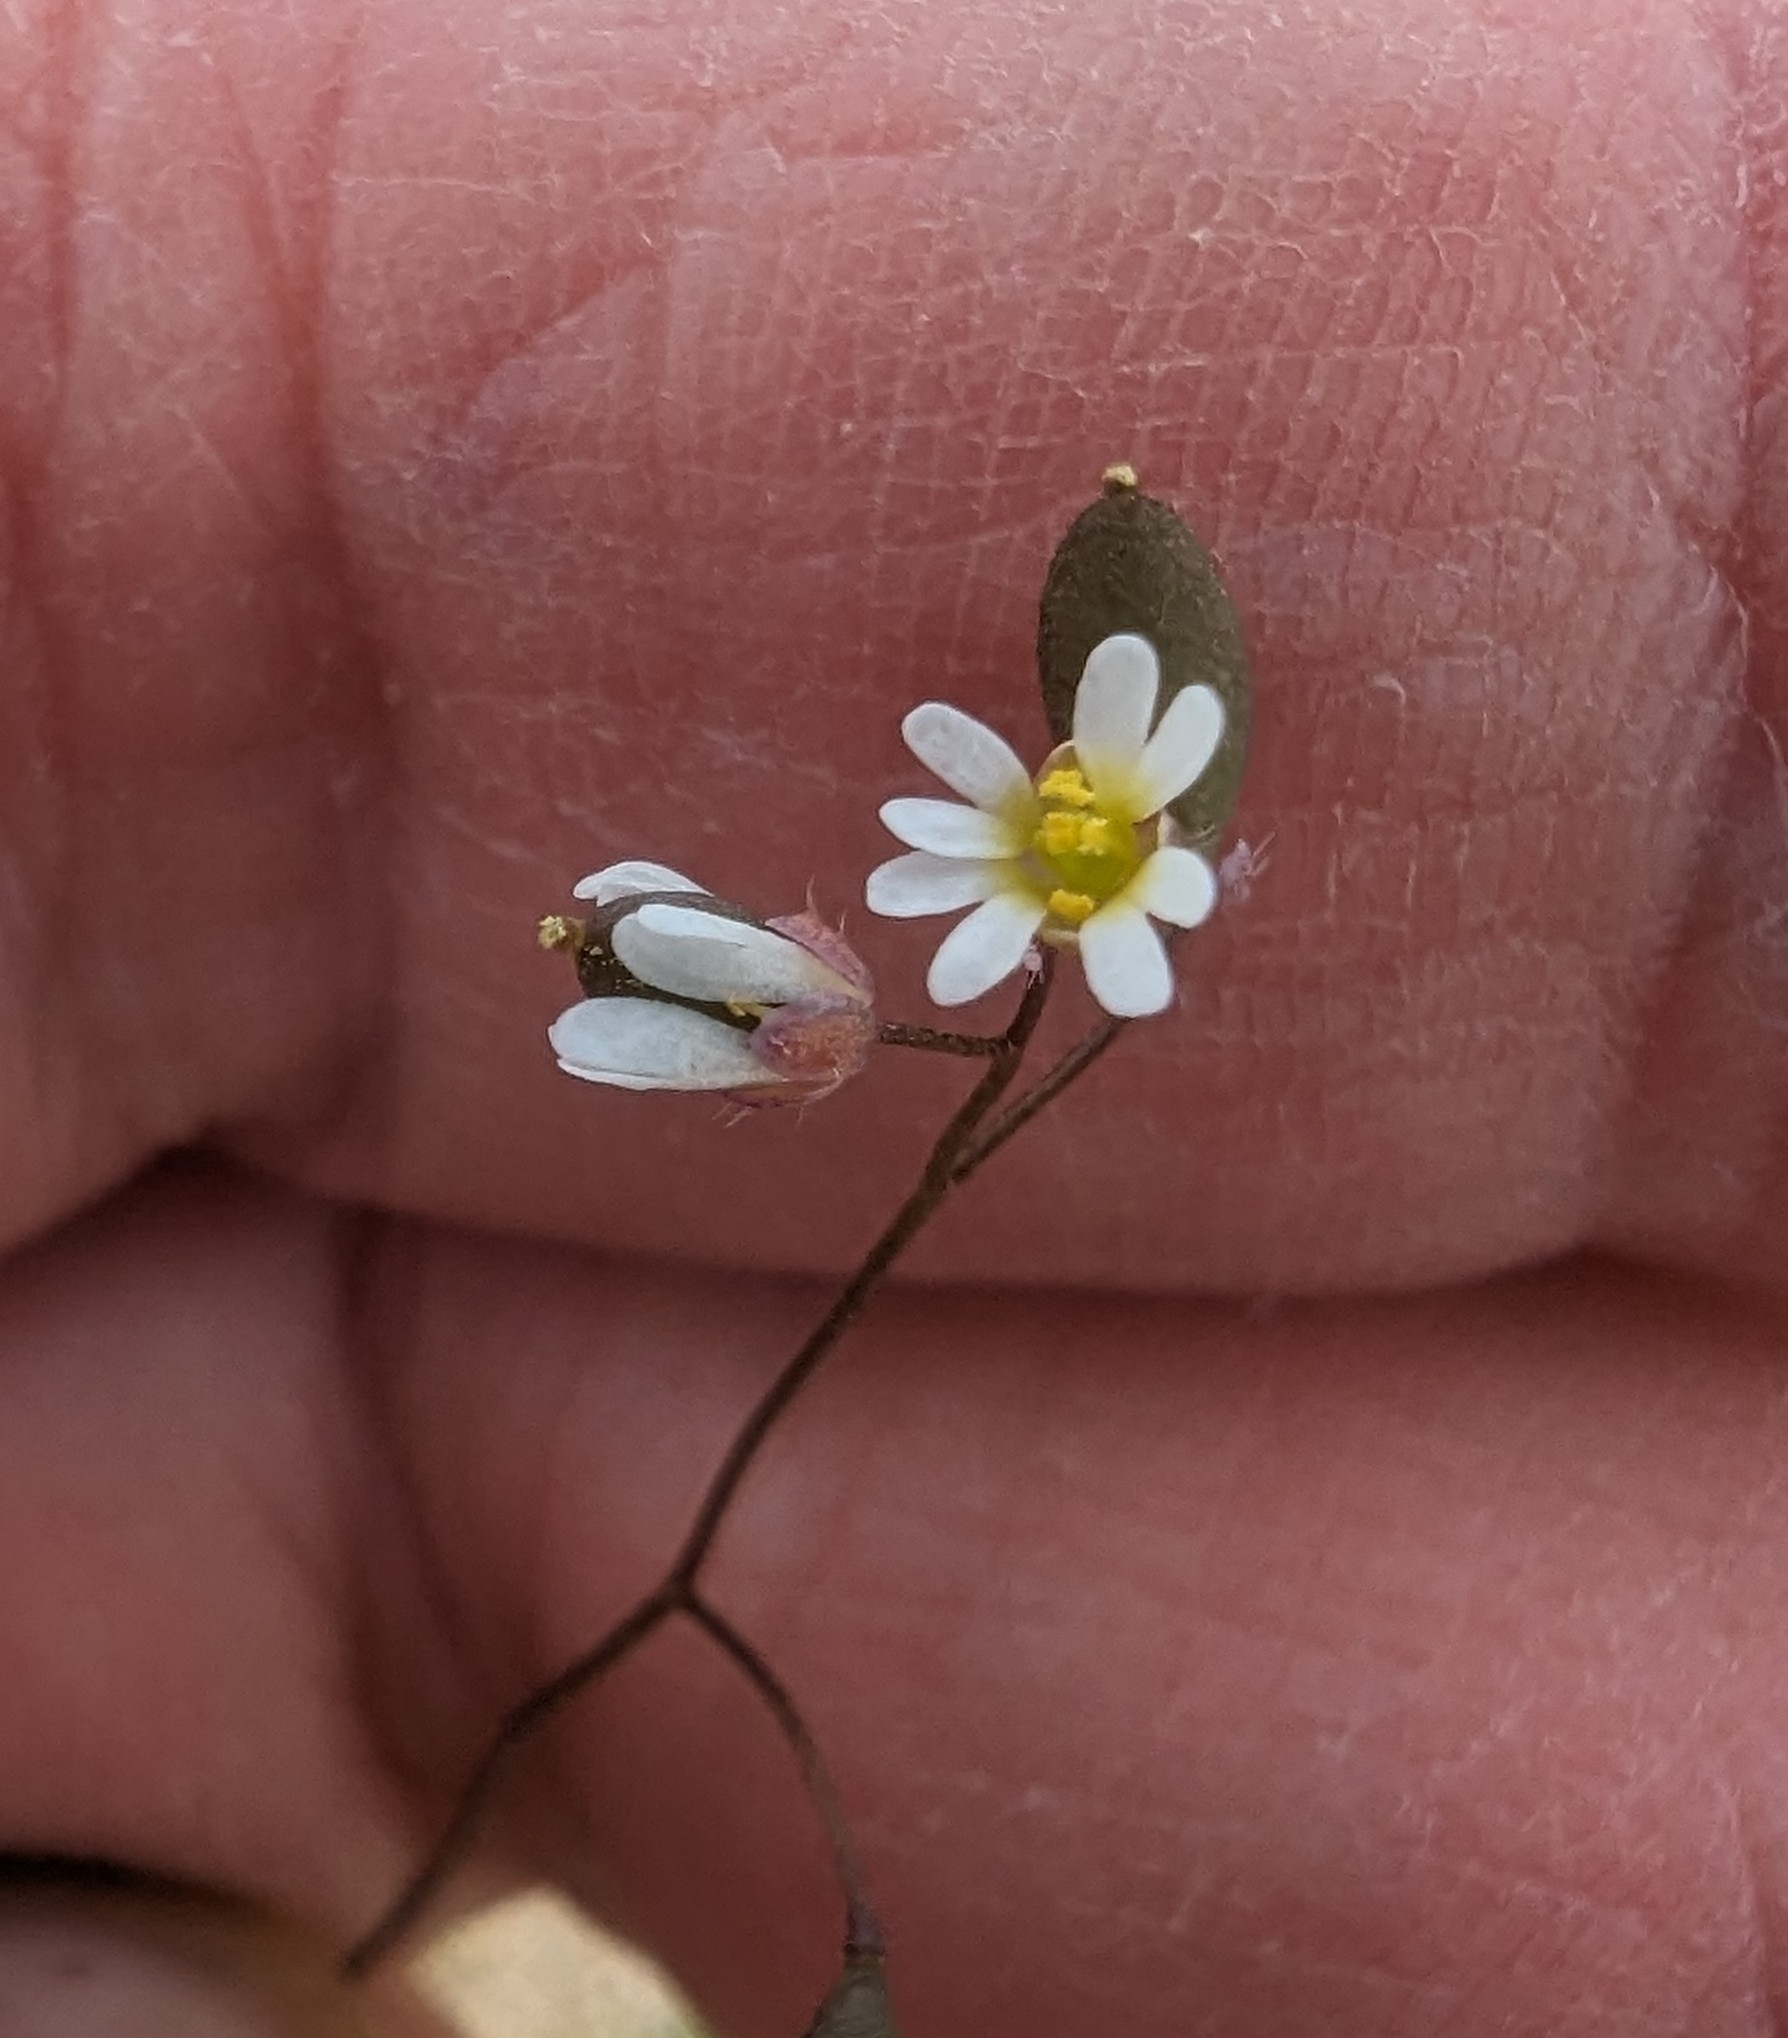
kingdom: Plantae
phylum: Tracheophyta
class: Magnoliopsida
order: Brassicales
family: Brassicaceae
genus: Draba
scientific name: Draba verna
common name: Spring draba
